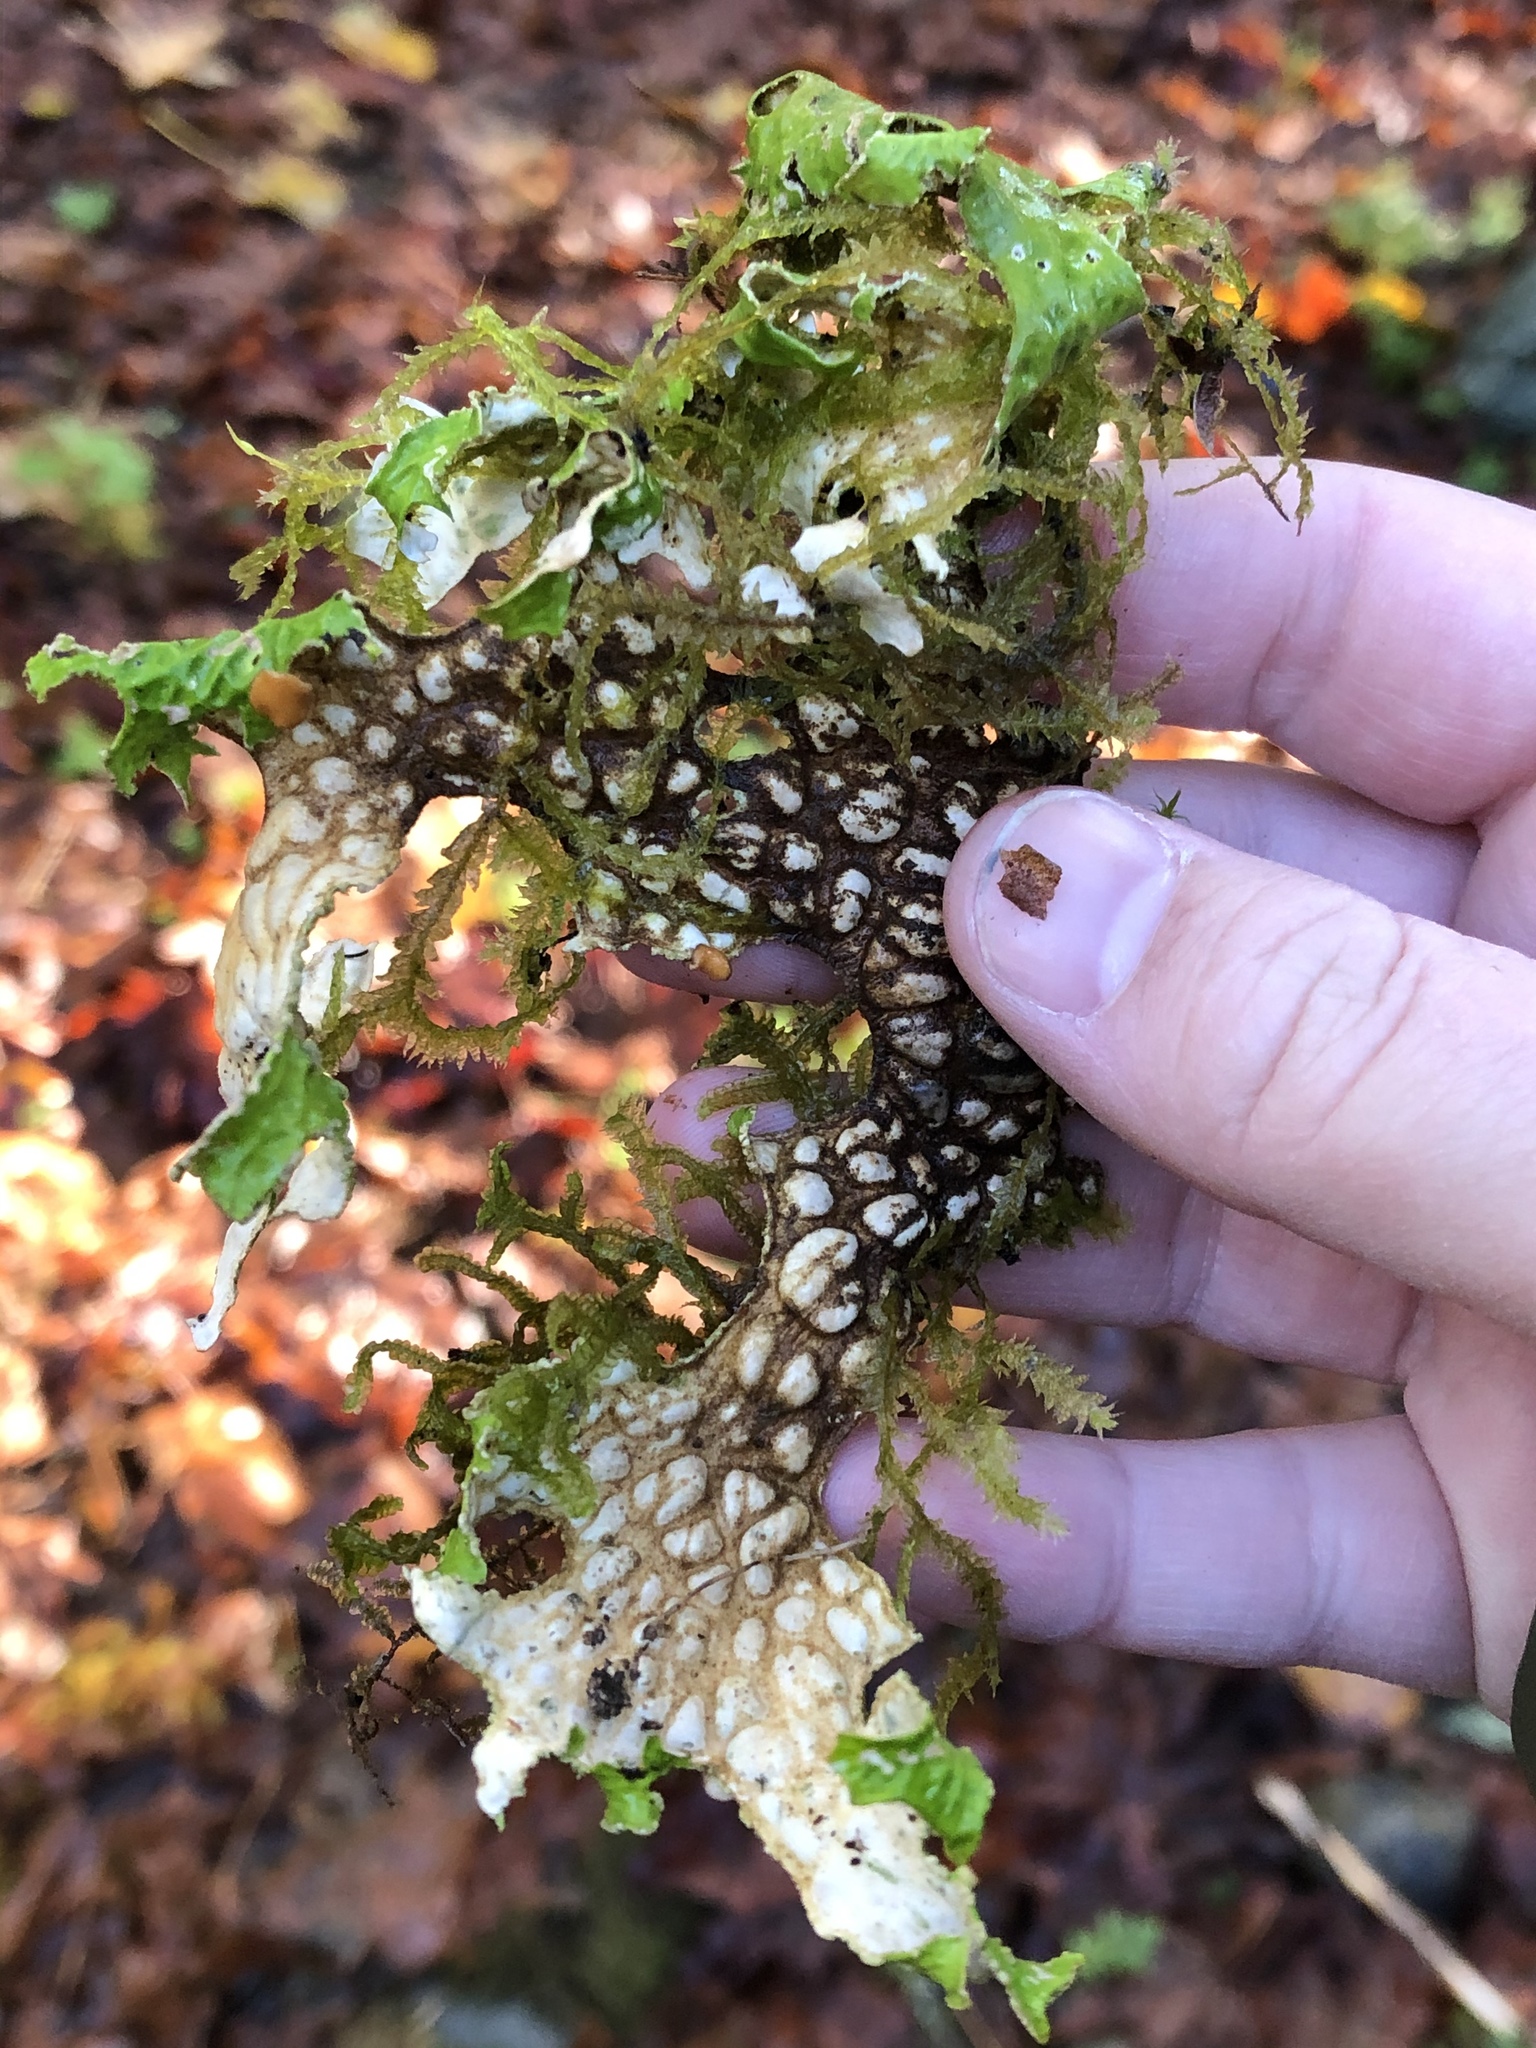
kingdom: Fungi
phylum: Ascomycota
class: Lecanoromycetes
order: Peltigerales
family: Lobariaceae
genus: Lobaria
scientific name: Lobaria pulmonaria
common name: Lungwort
